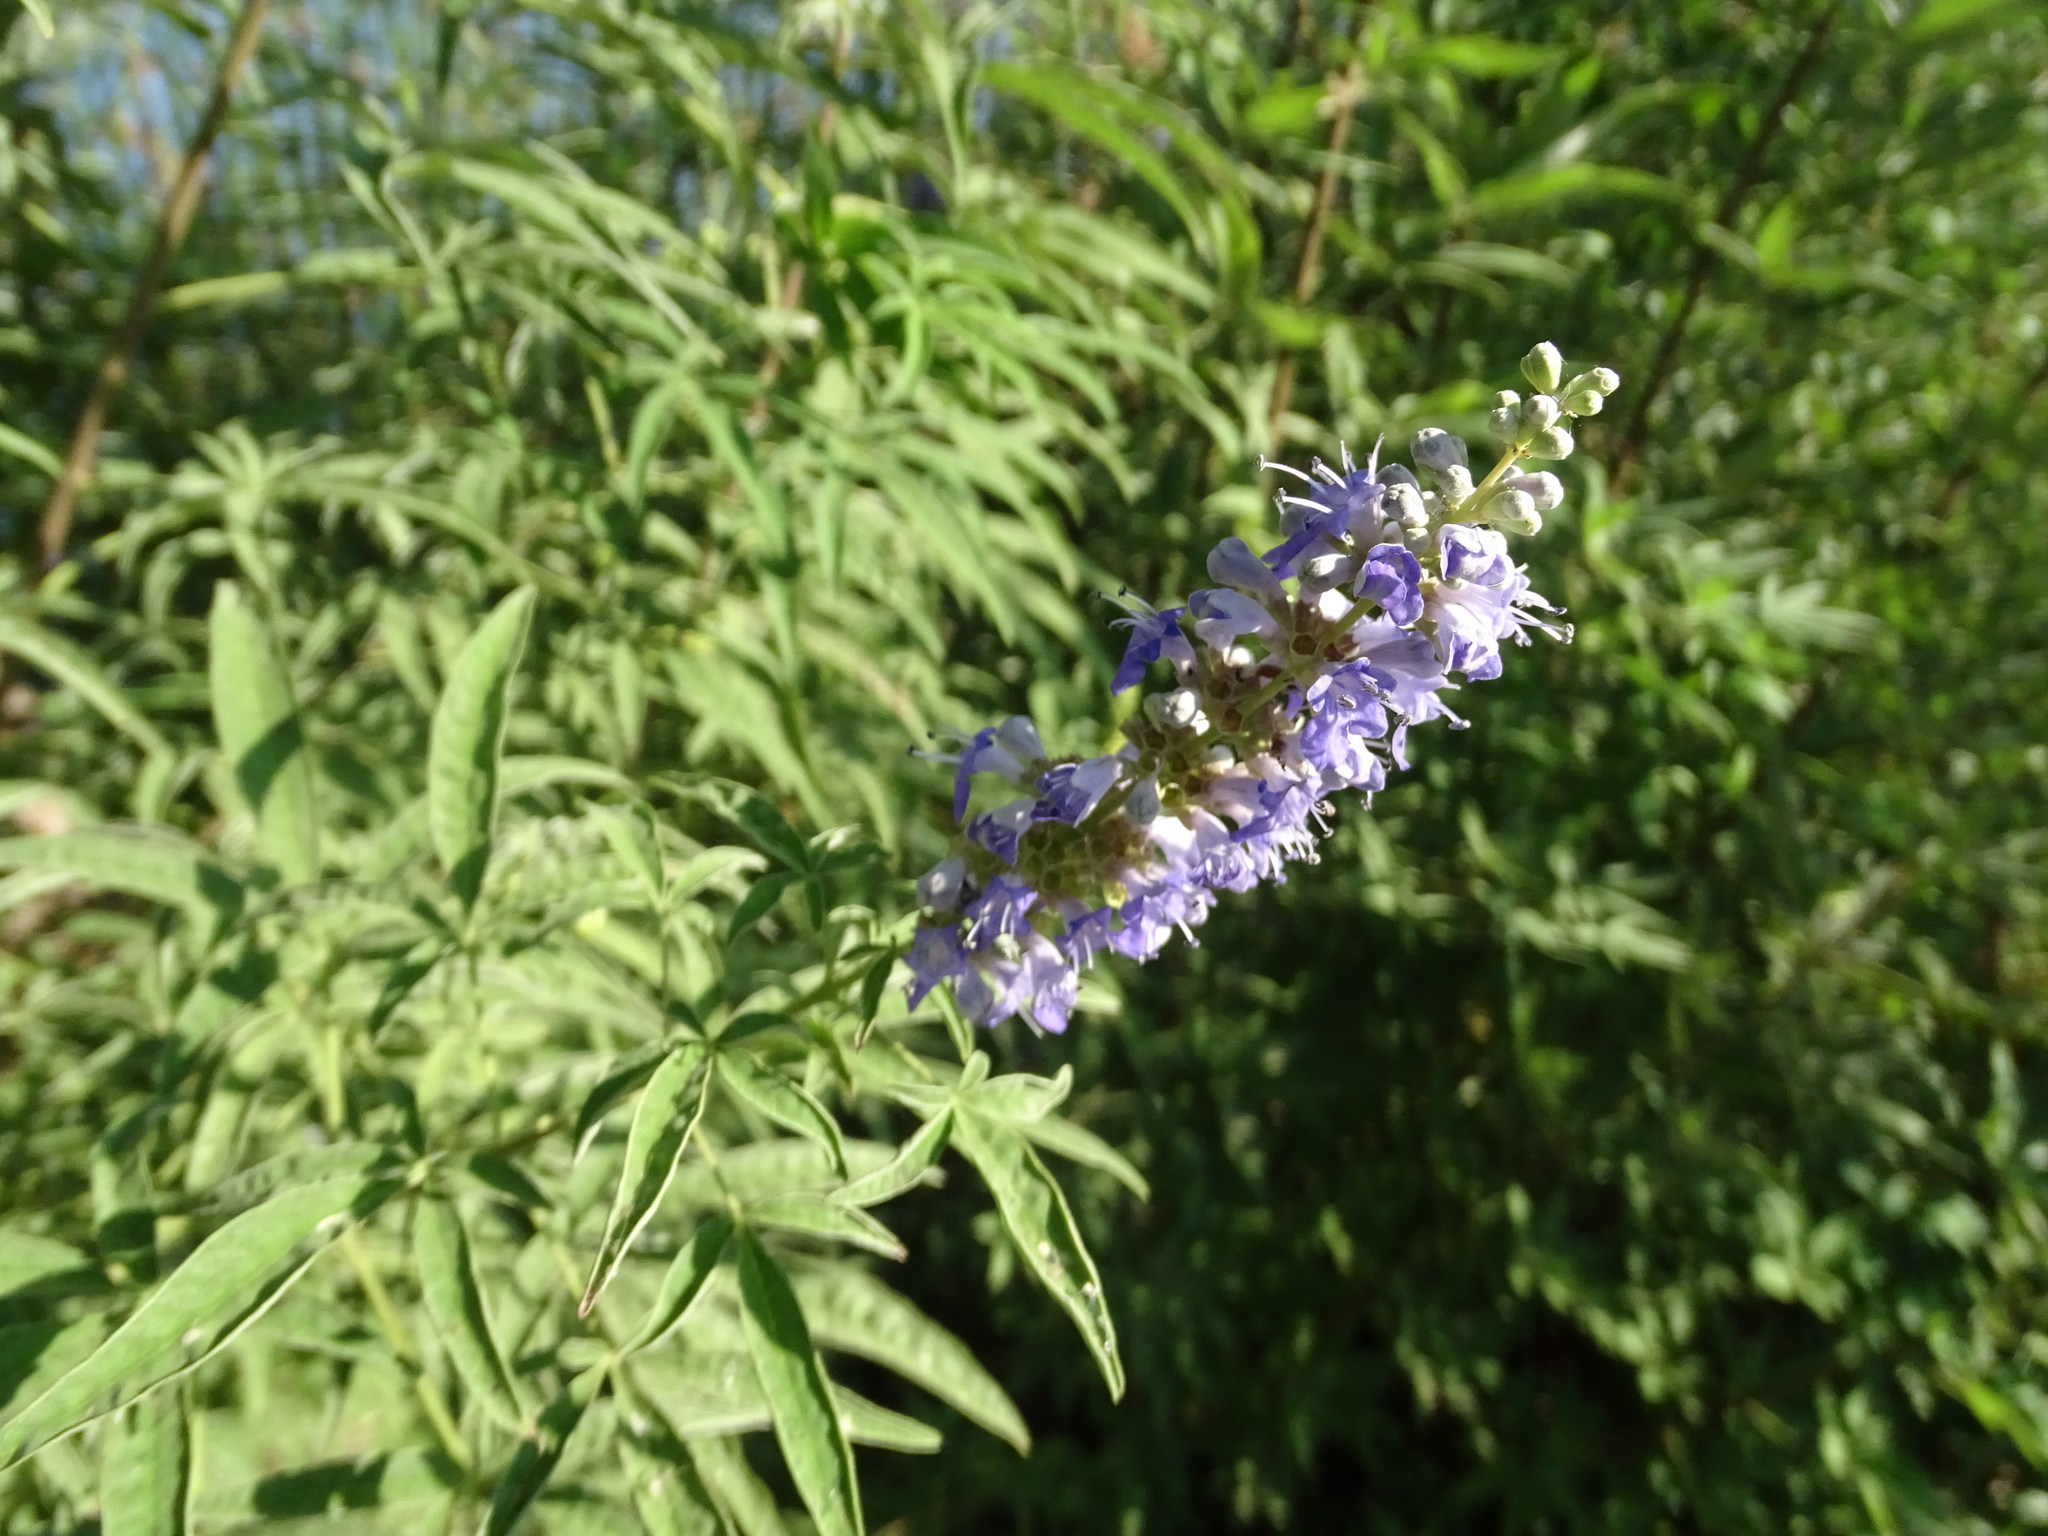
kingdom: Plantae
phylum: Tracheophyta
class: Magnoliopsida
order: Lamiales
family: Lamiaceae
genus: Vitex
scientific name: Vitex agnus-castus
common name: Chasteberry
